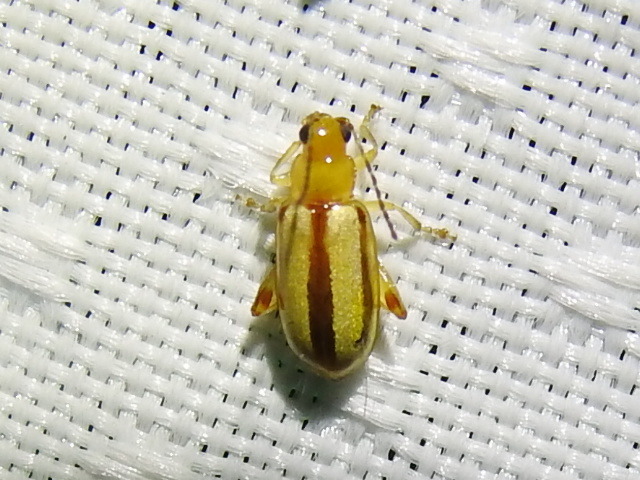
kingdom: Animalia
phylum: Arthropoda
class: Insecta
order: Coleoptera
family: Chrysomelidae
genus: Systena
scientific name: Systena gracilenta
